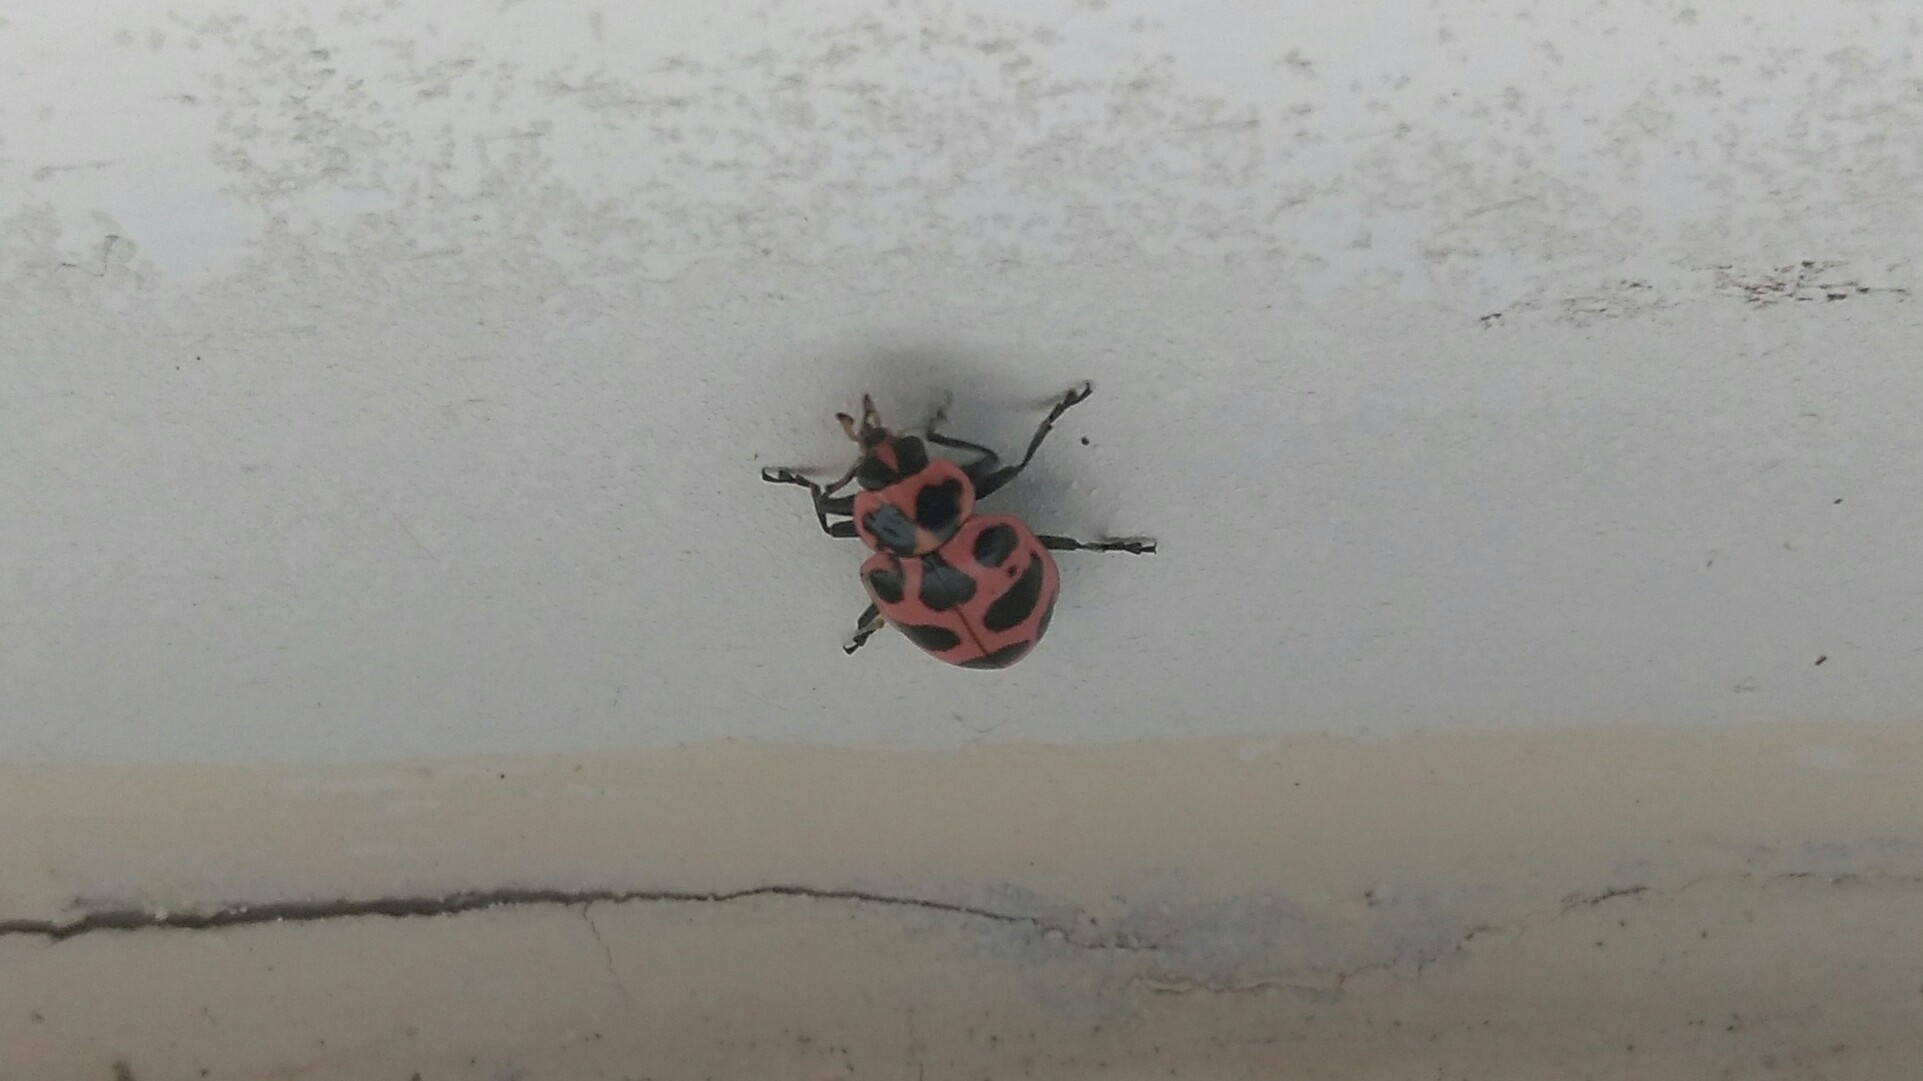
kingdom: Animalia
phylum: Arthropoda
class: Insecta
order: Coleoptera
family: Coccinellidae
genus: Coleomegilla
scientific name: Coleomegilla maculata
